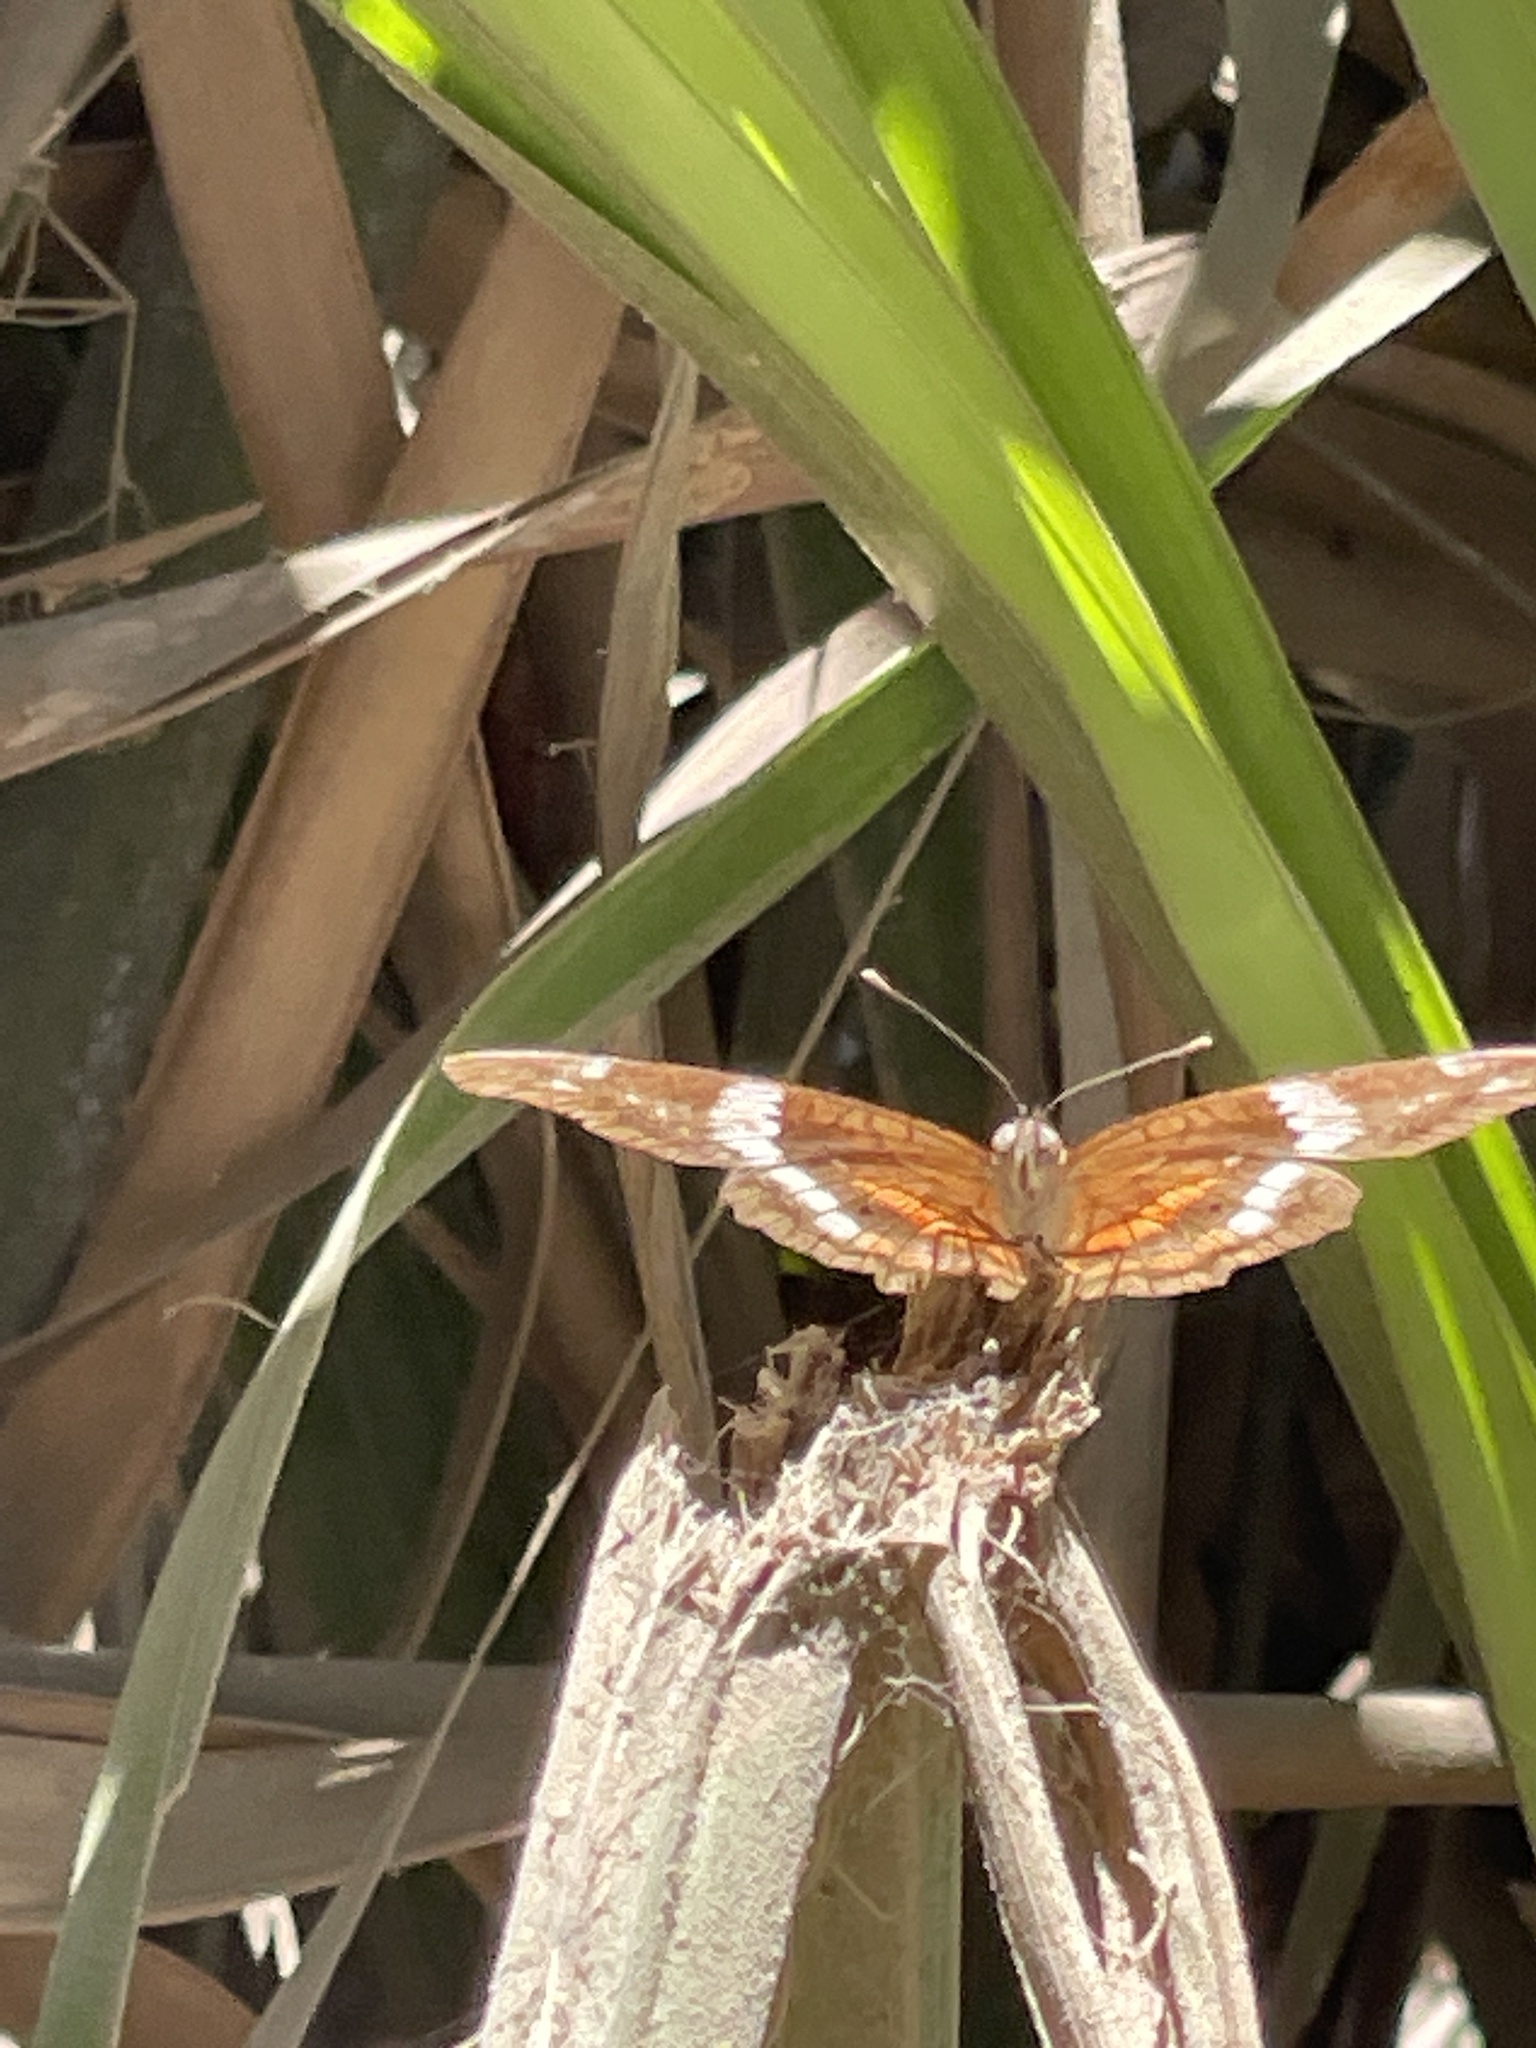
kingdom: Animalia
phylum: Arthropoda
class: Insecta
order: Lepidoptera
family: Nymphalidae
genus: Anartia
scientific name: Anartia fatima
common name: Banded peacock
